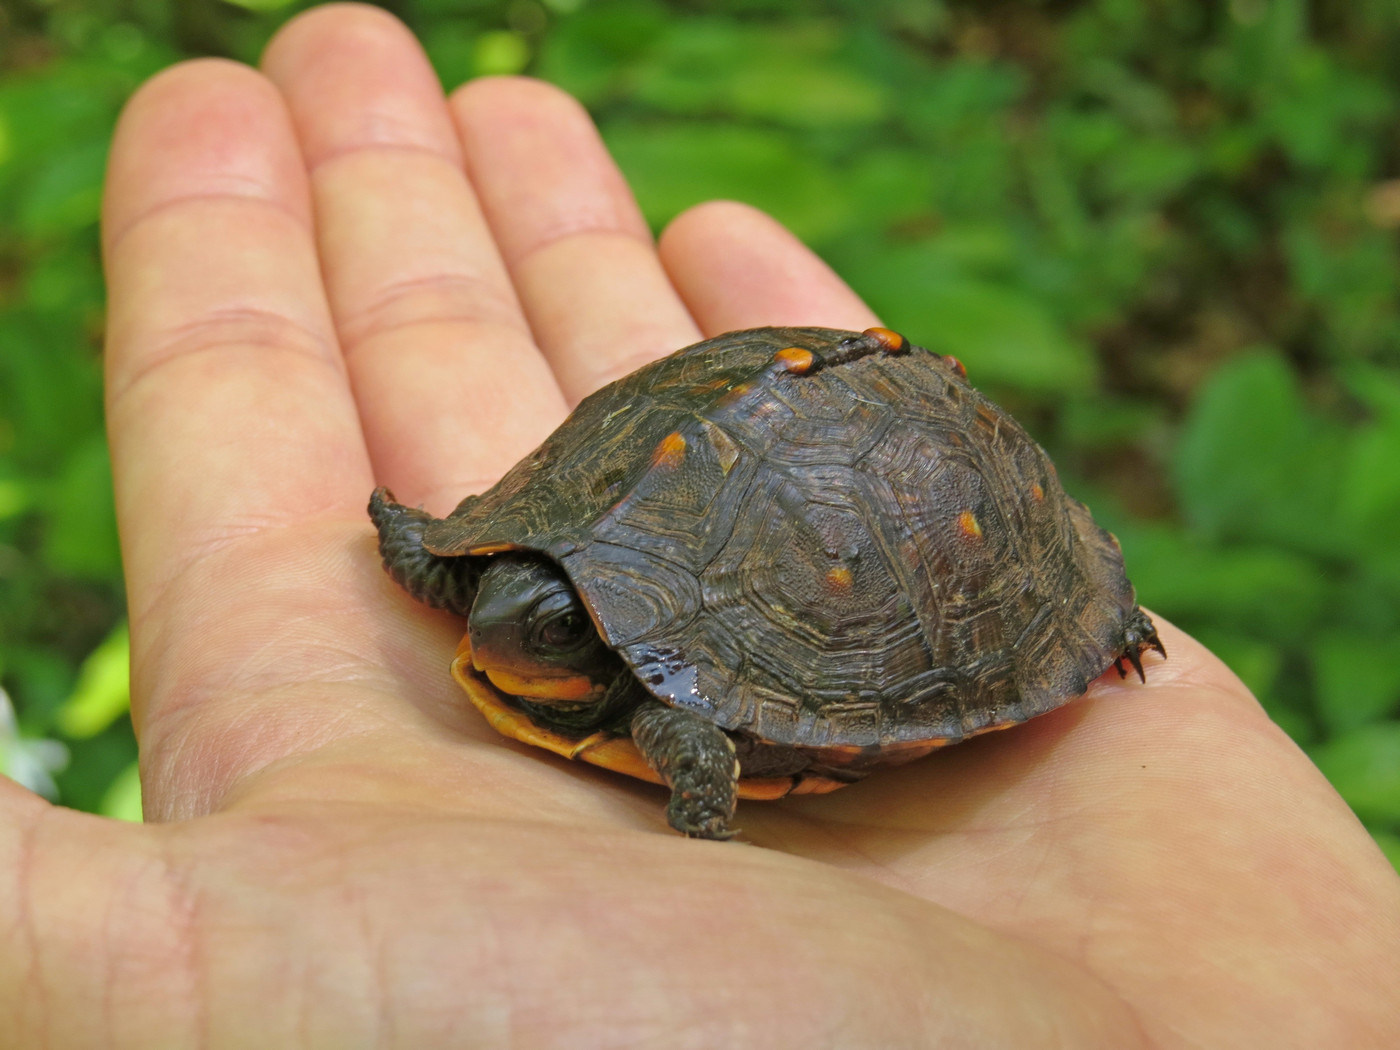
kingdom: Animalia
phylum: Chordata
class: Testudines
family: Emydidae
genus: Terrapene
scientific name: Terrapene carolina
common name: Common box turtle
